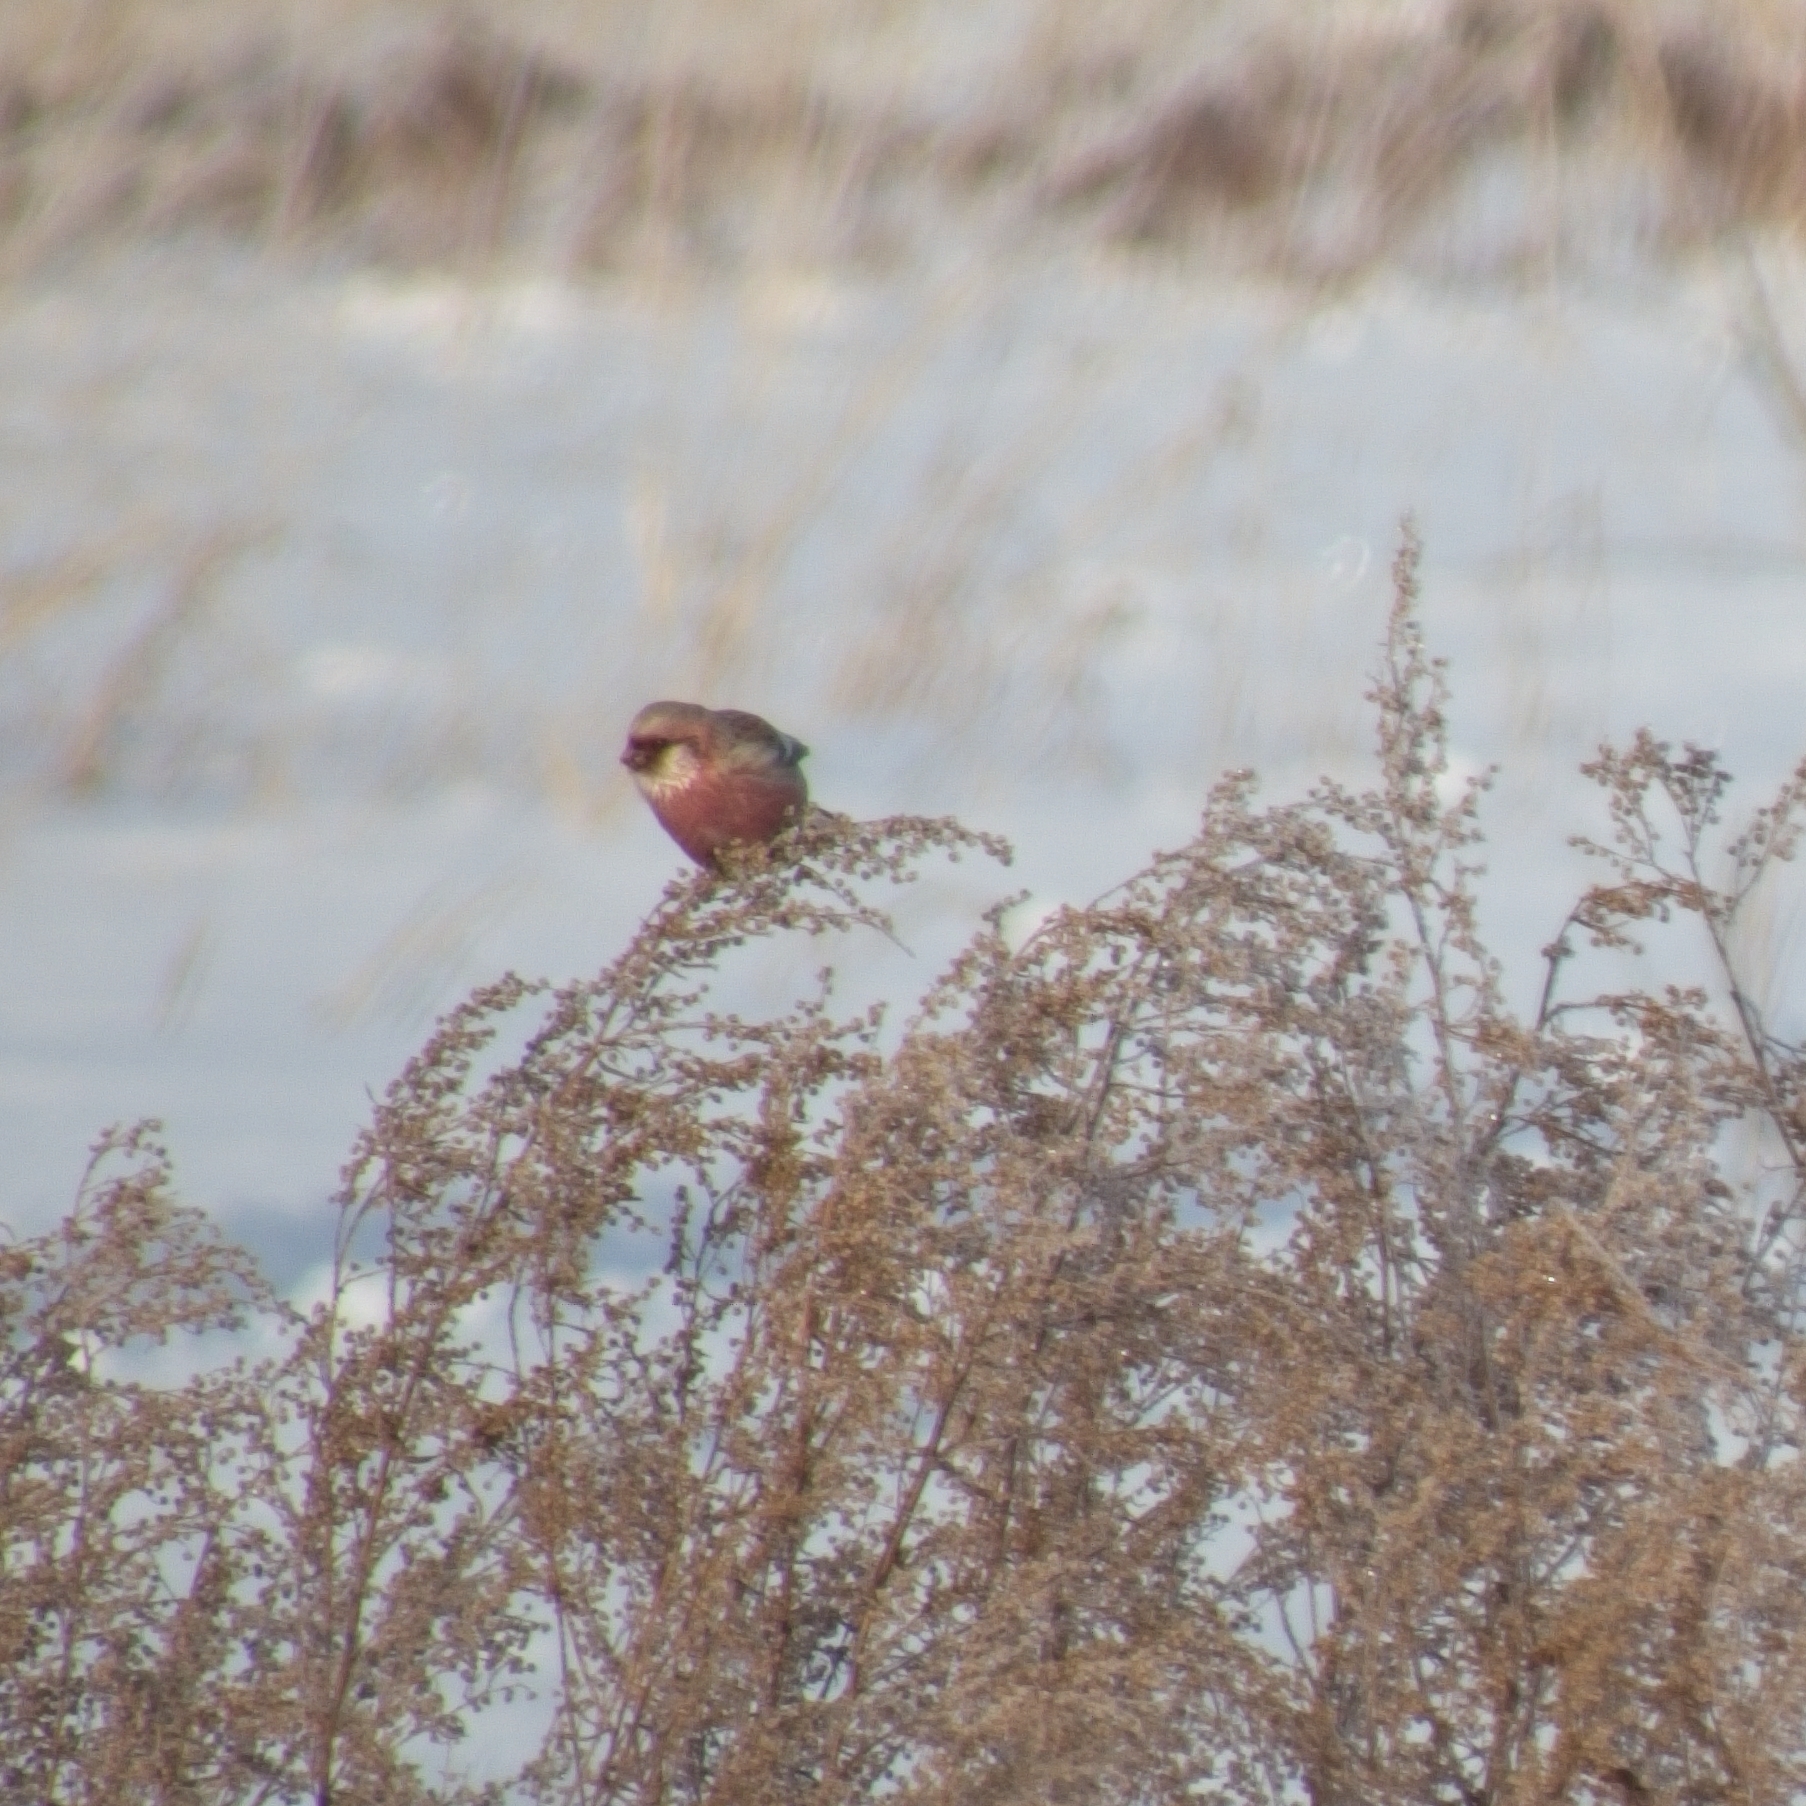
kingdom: Animalia
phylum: Chordata
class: Aves
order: Passeriformes
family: Fringillidae
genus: Carpodacus
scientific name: Carpodacus sibiricus
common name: Long-tailed rosefinch
